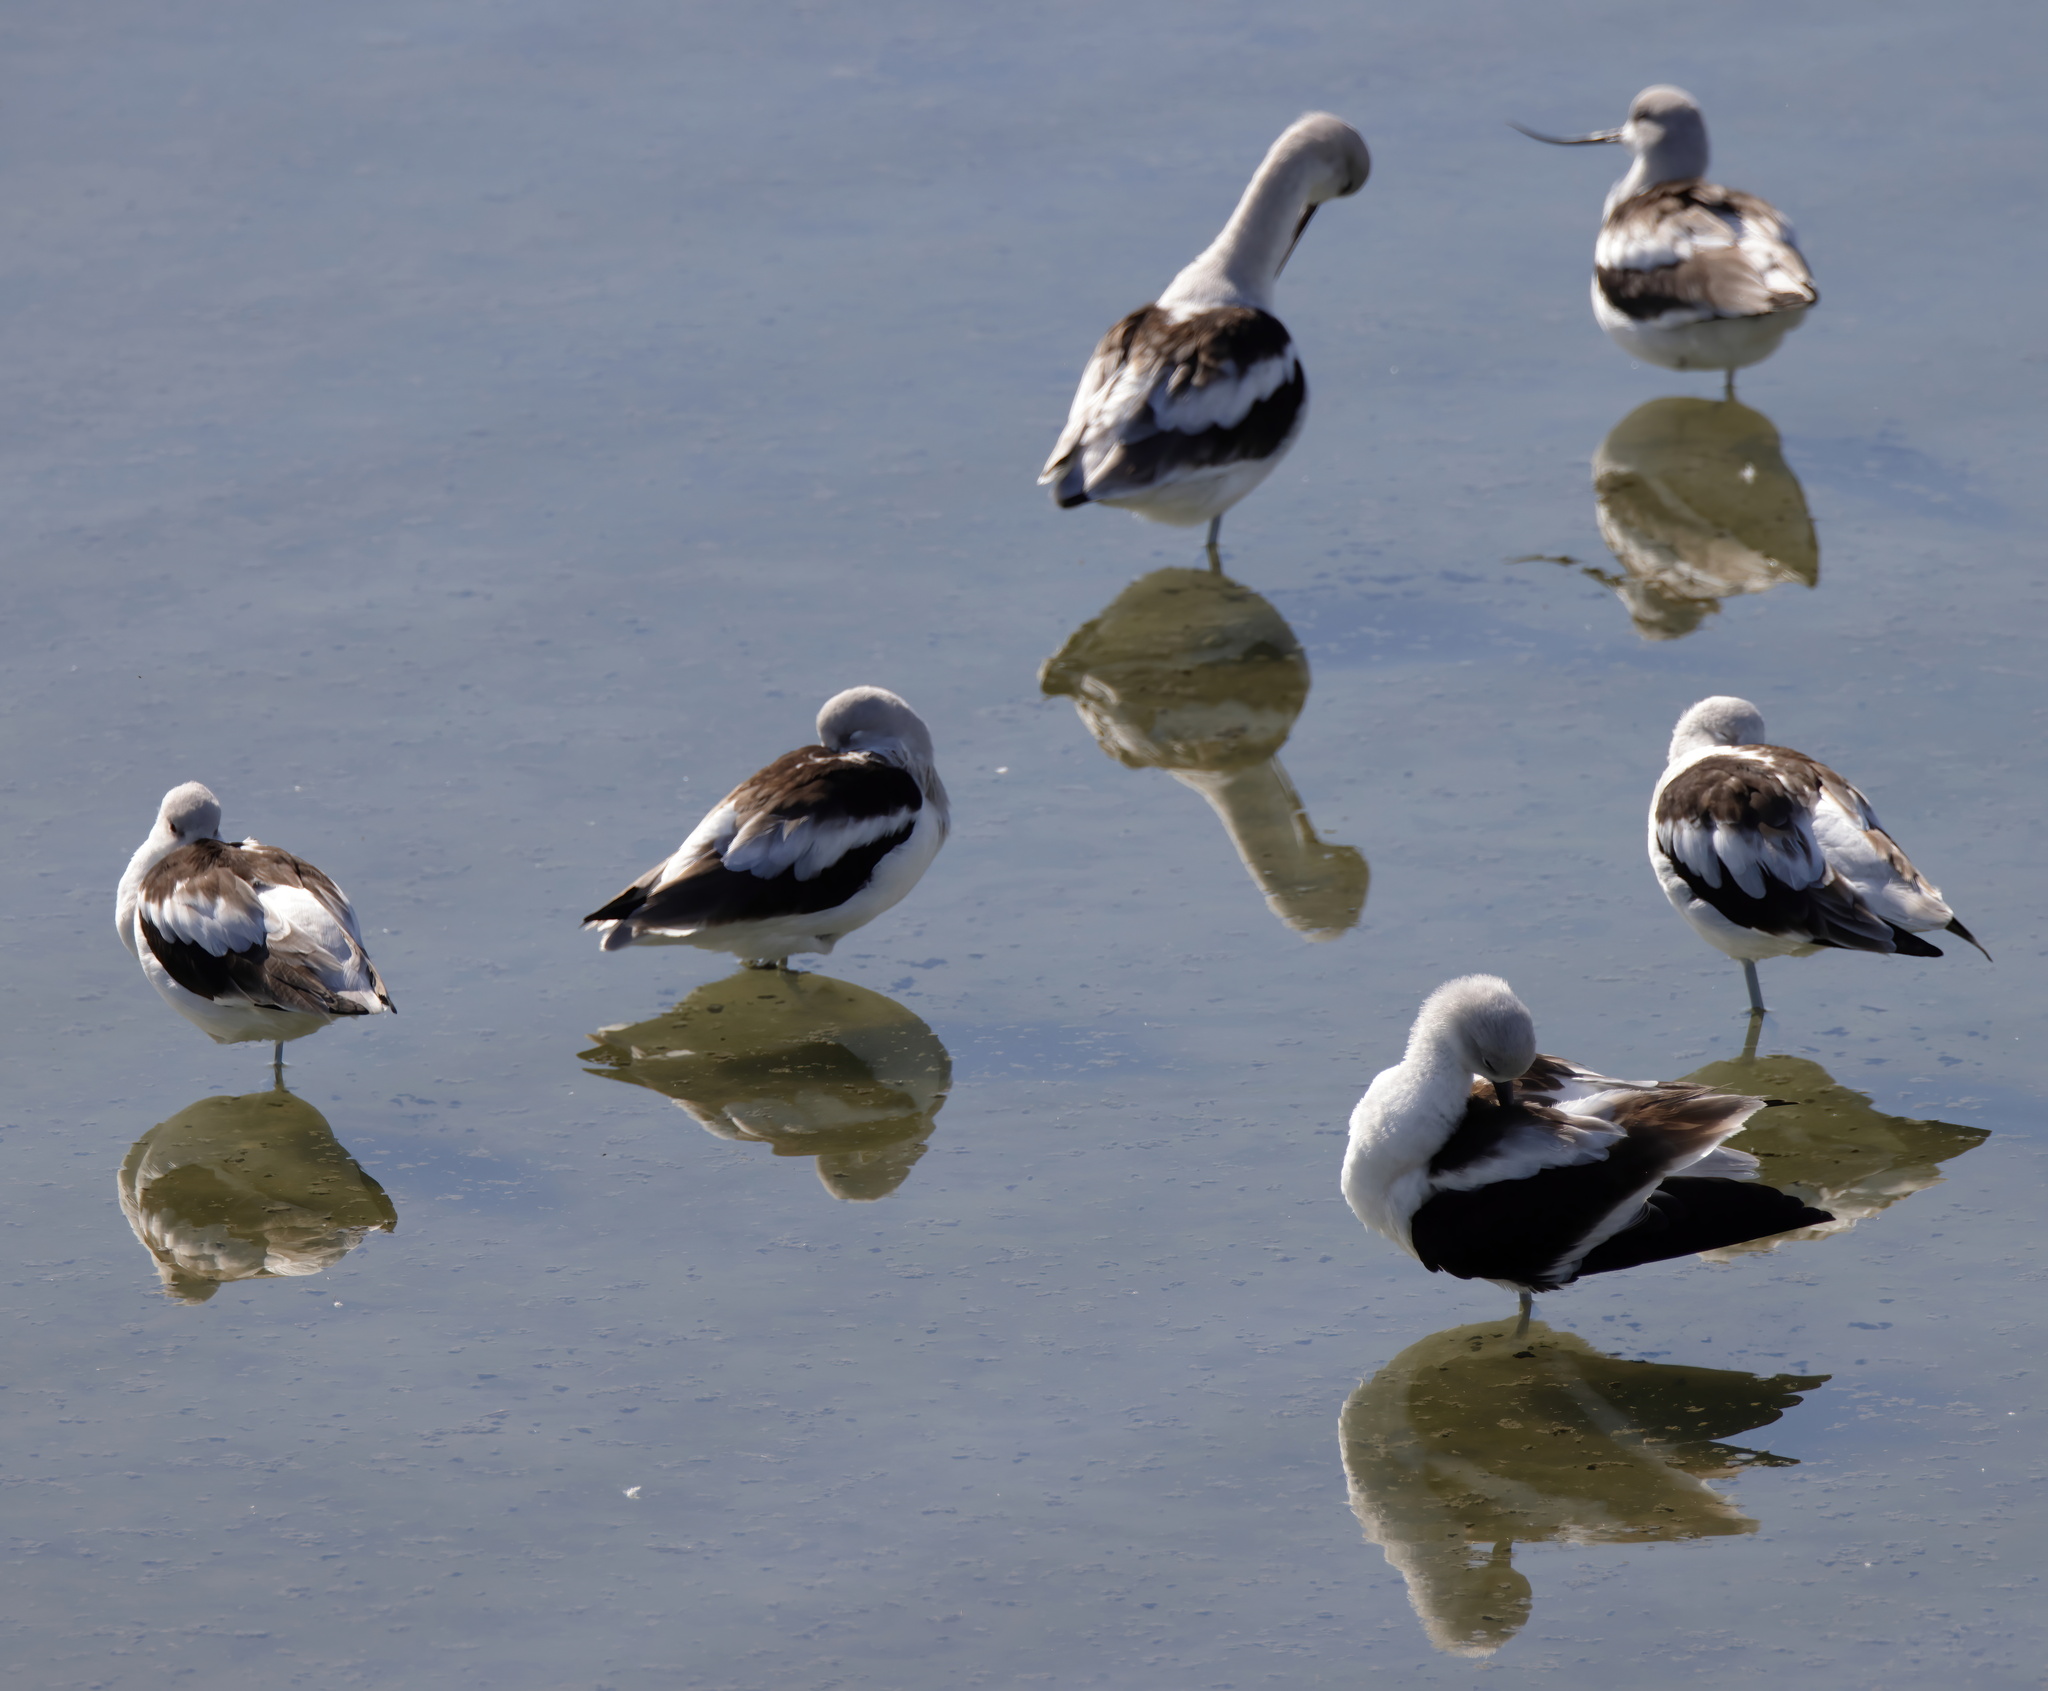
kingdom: Animalia
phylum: Chordata
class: Aves
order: Charadriiformes
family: Recurvirostridae
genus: Recurvirostra
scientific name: Recurvirostra americana
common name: American avocet
